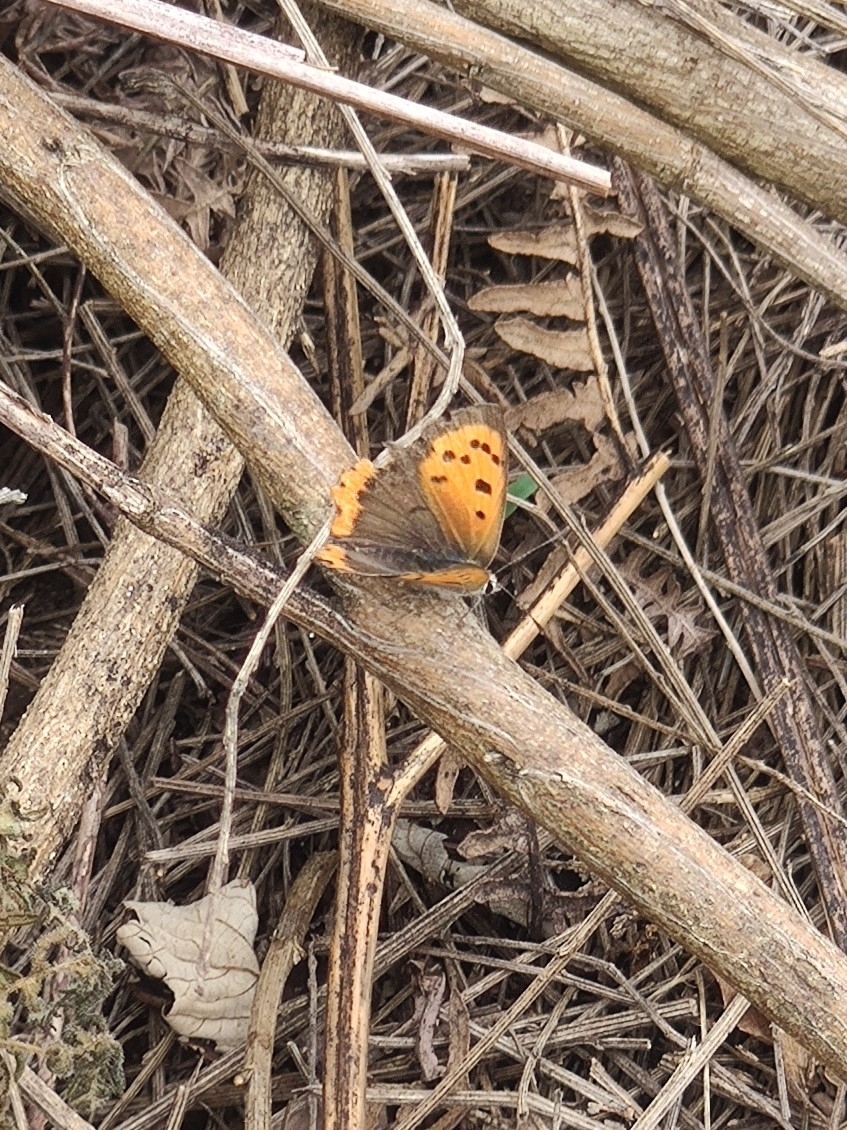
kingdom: Animalia
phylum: Arthropoda
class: Insecta
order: Lepidoptera
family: Lycaenidae
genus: Lycaena
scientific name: Lycaena phlaeas
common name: Small copper
